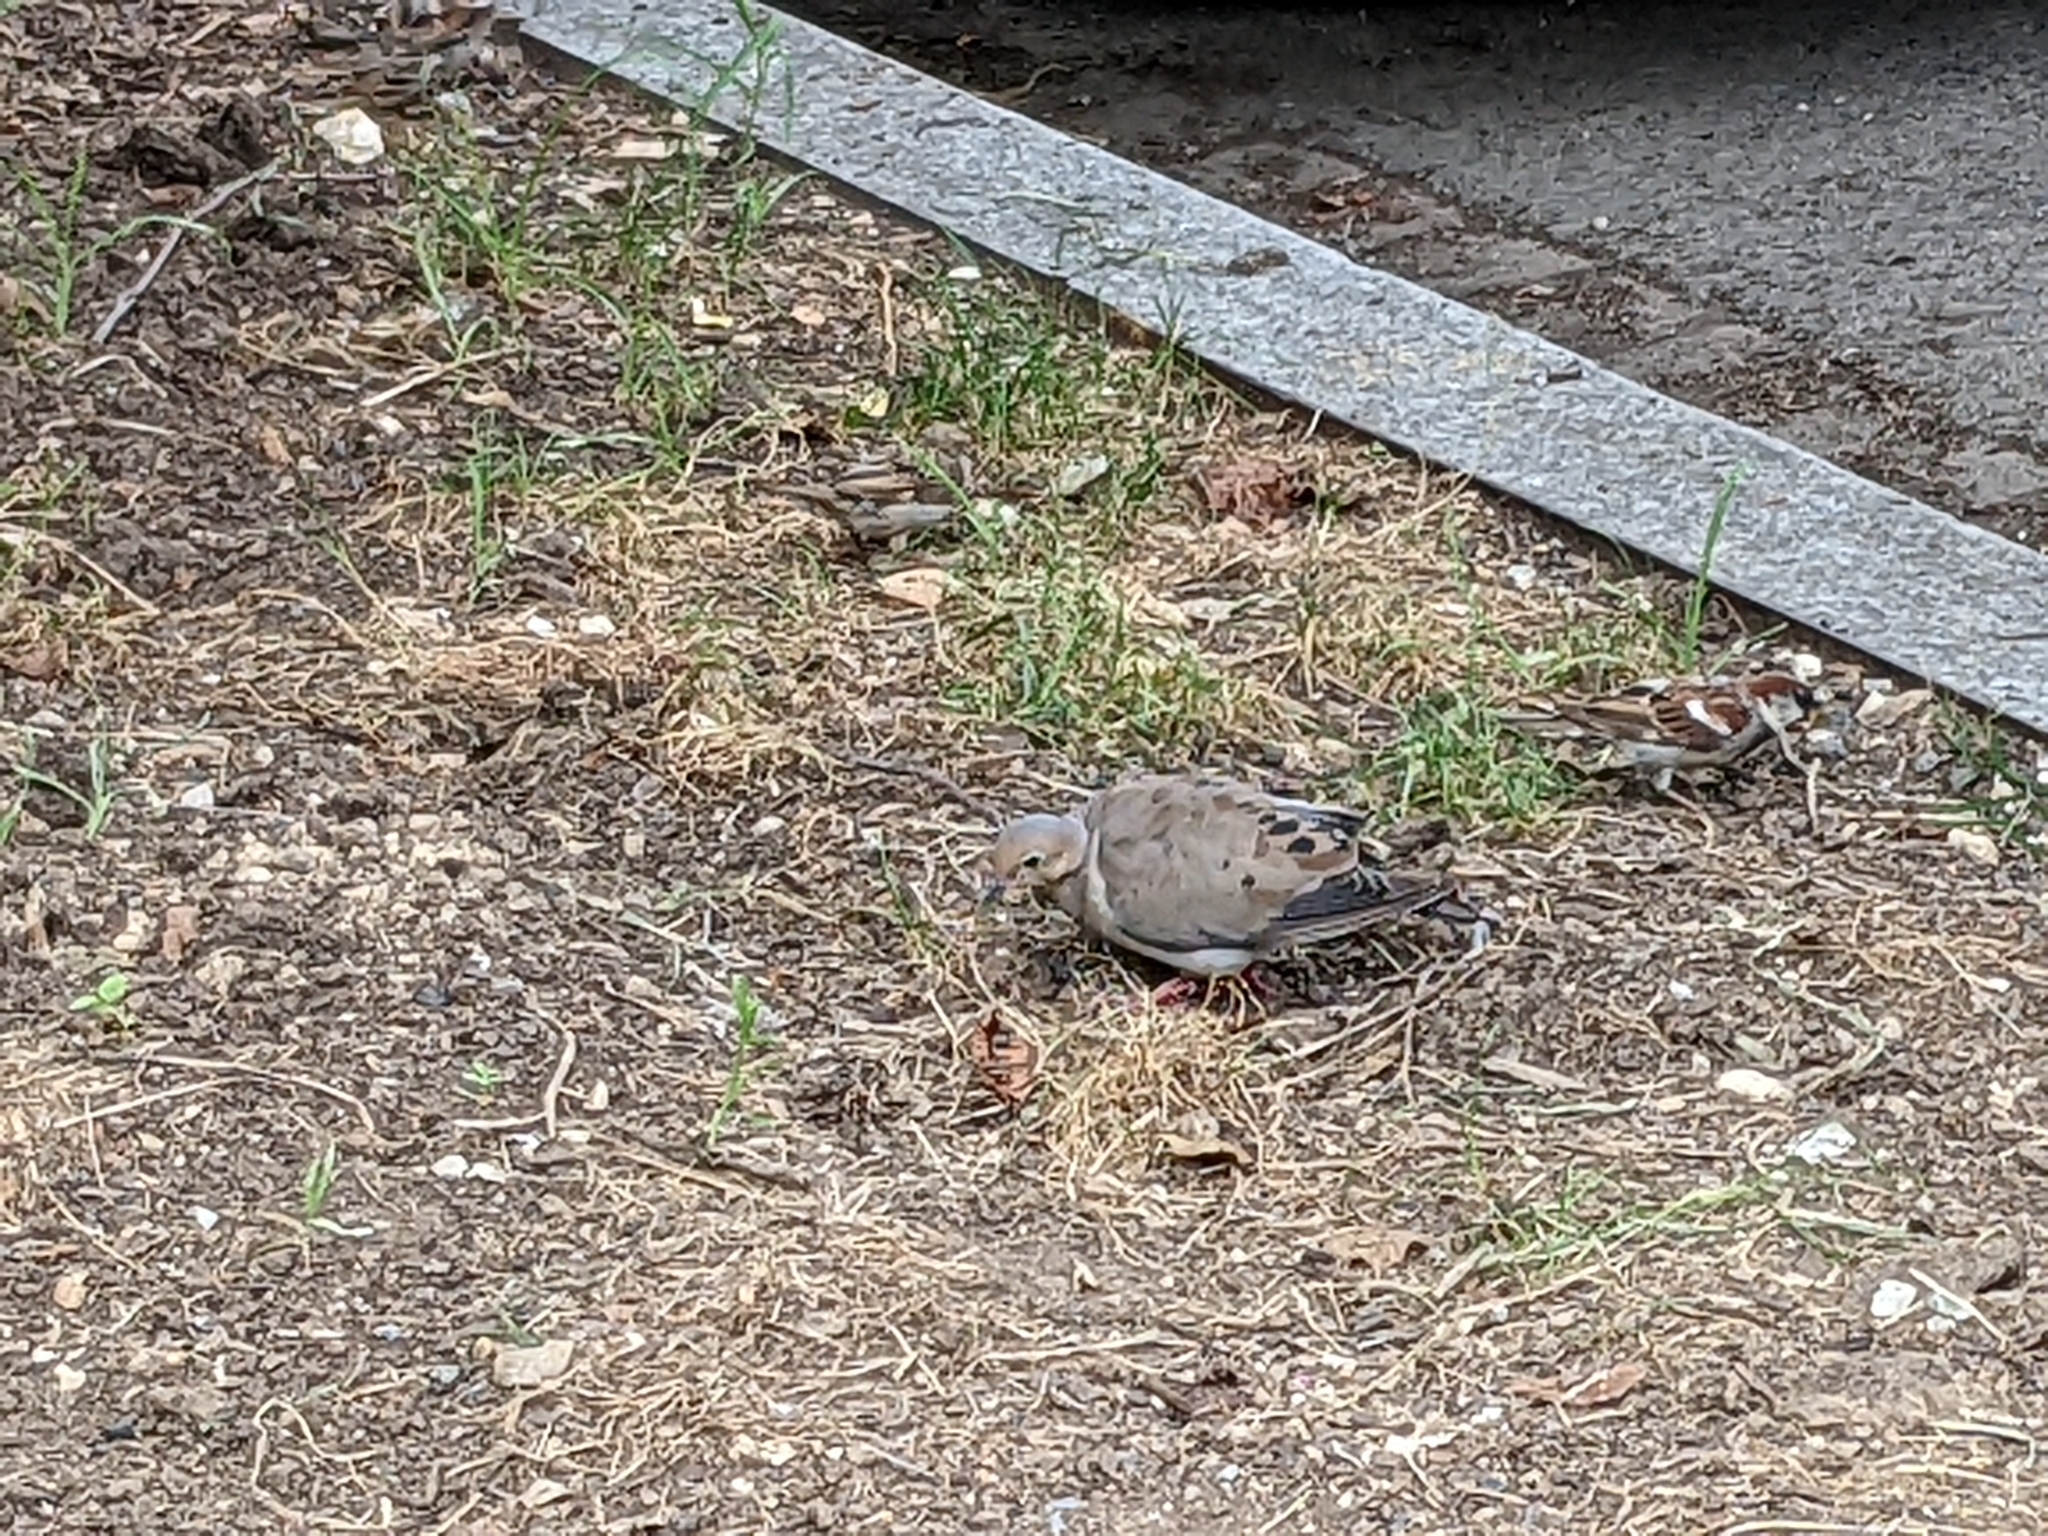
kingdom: Animalia
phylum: Chordata
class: Aves
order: Columbiformes
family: Columbidae
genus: Zenaida
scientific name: Zenaida macroura
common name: Mourning dove
